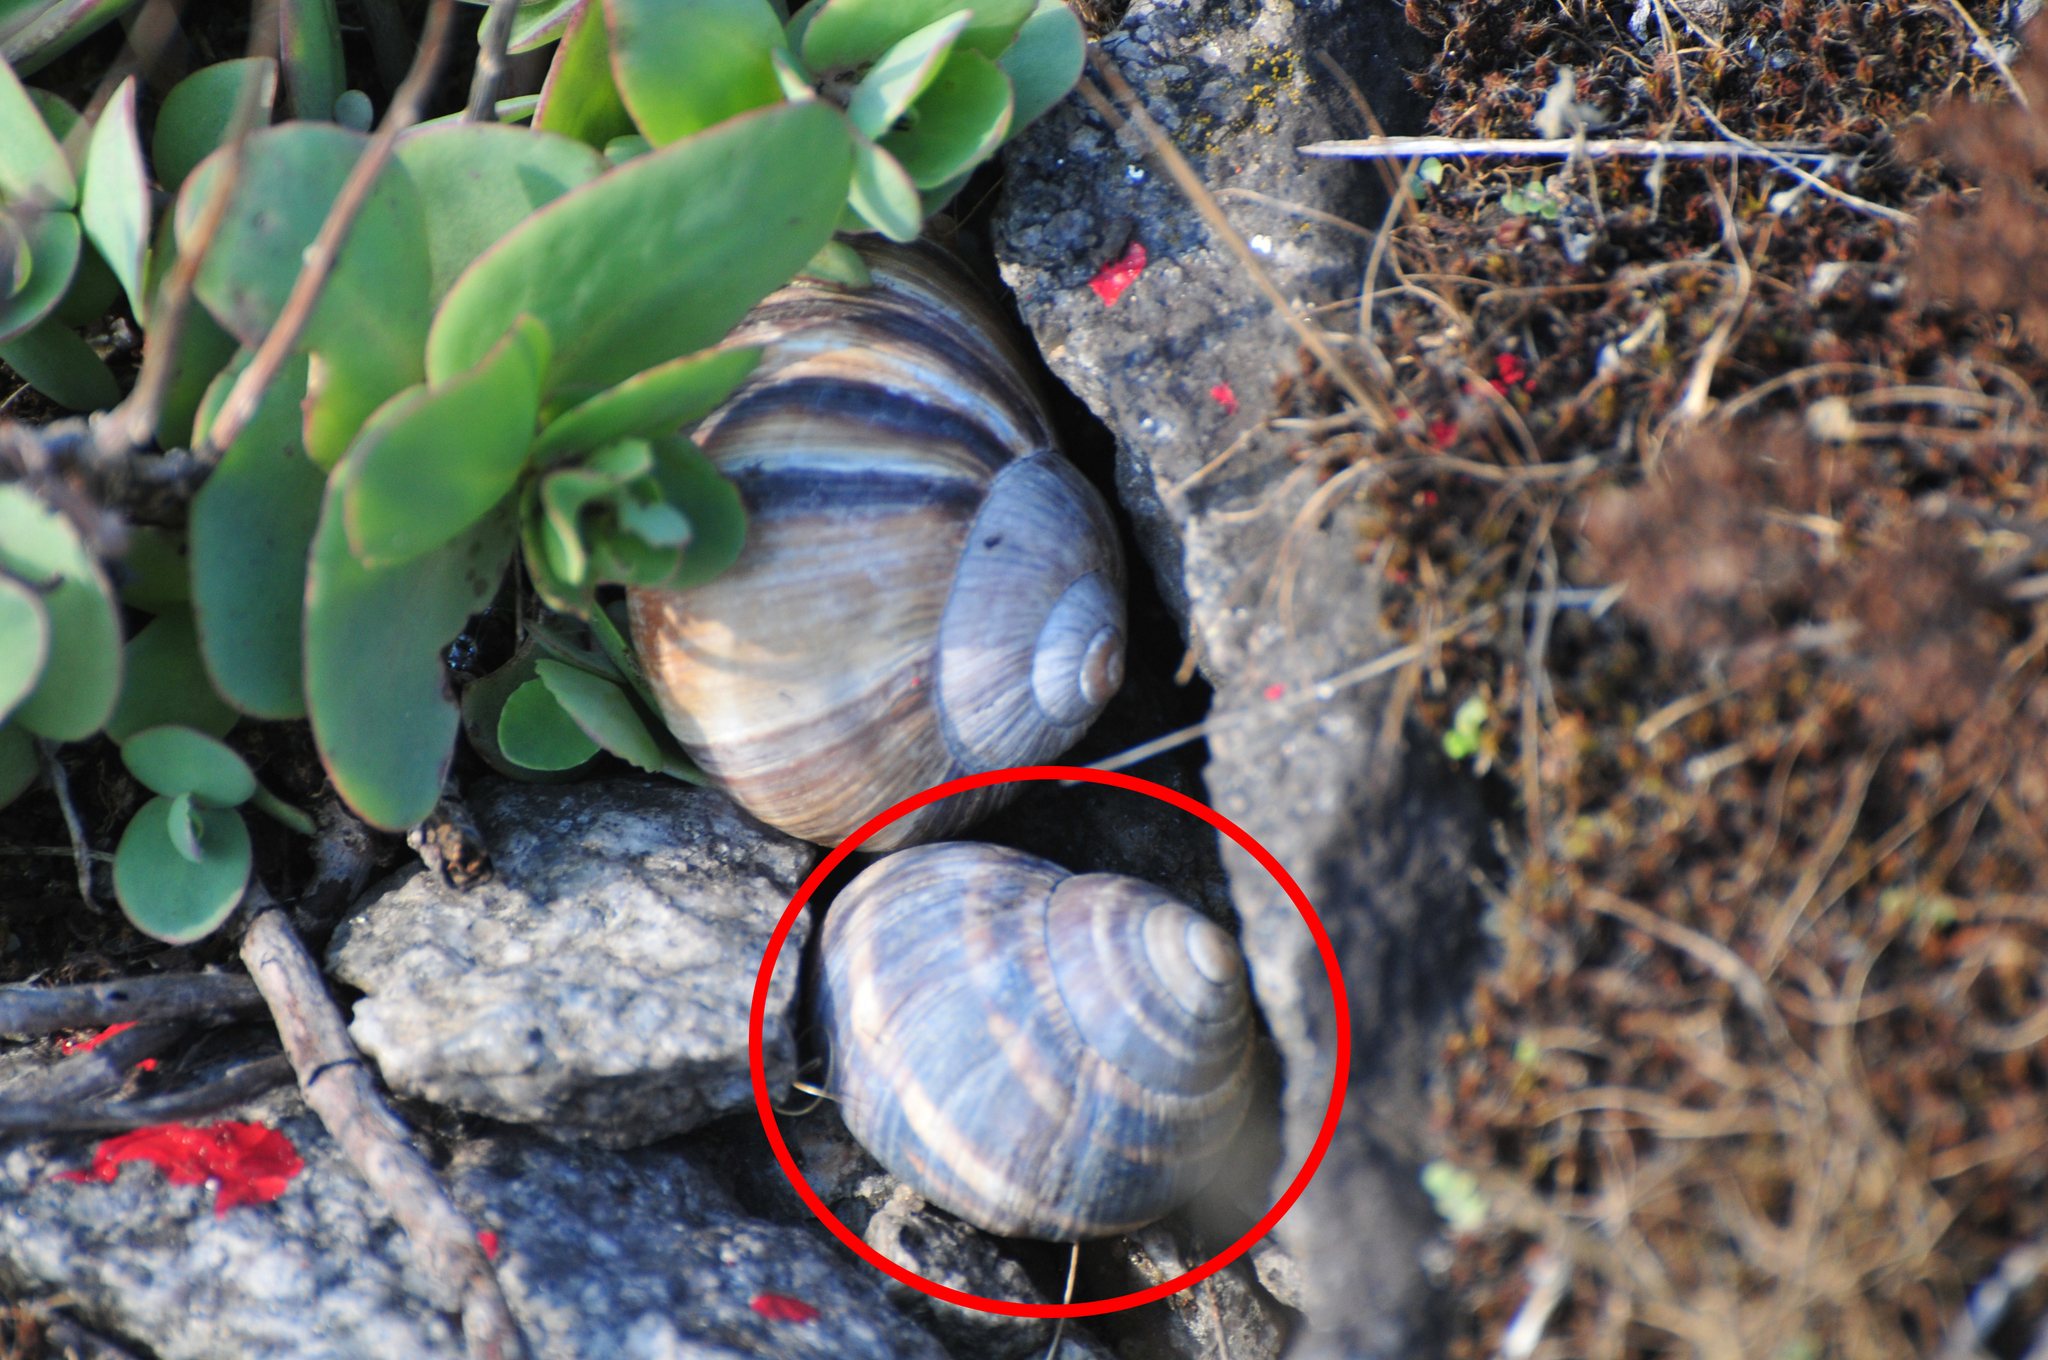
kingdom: Animalia
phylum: Mollusca
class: Gastropoda
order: Stylommatophora
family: Helicidae
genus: Helix
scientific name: Helix albescens
